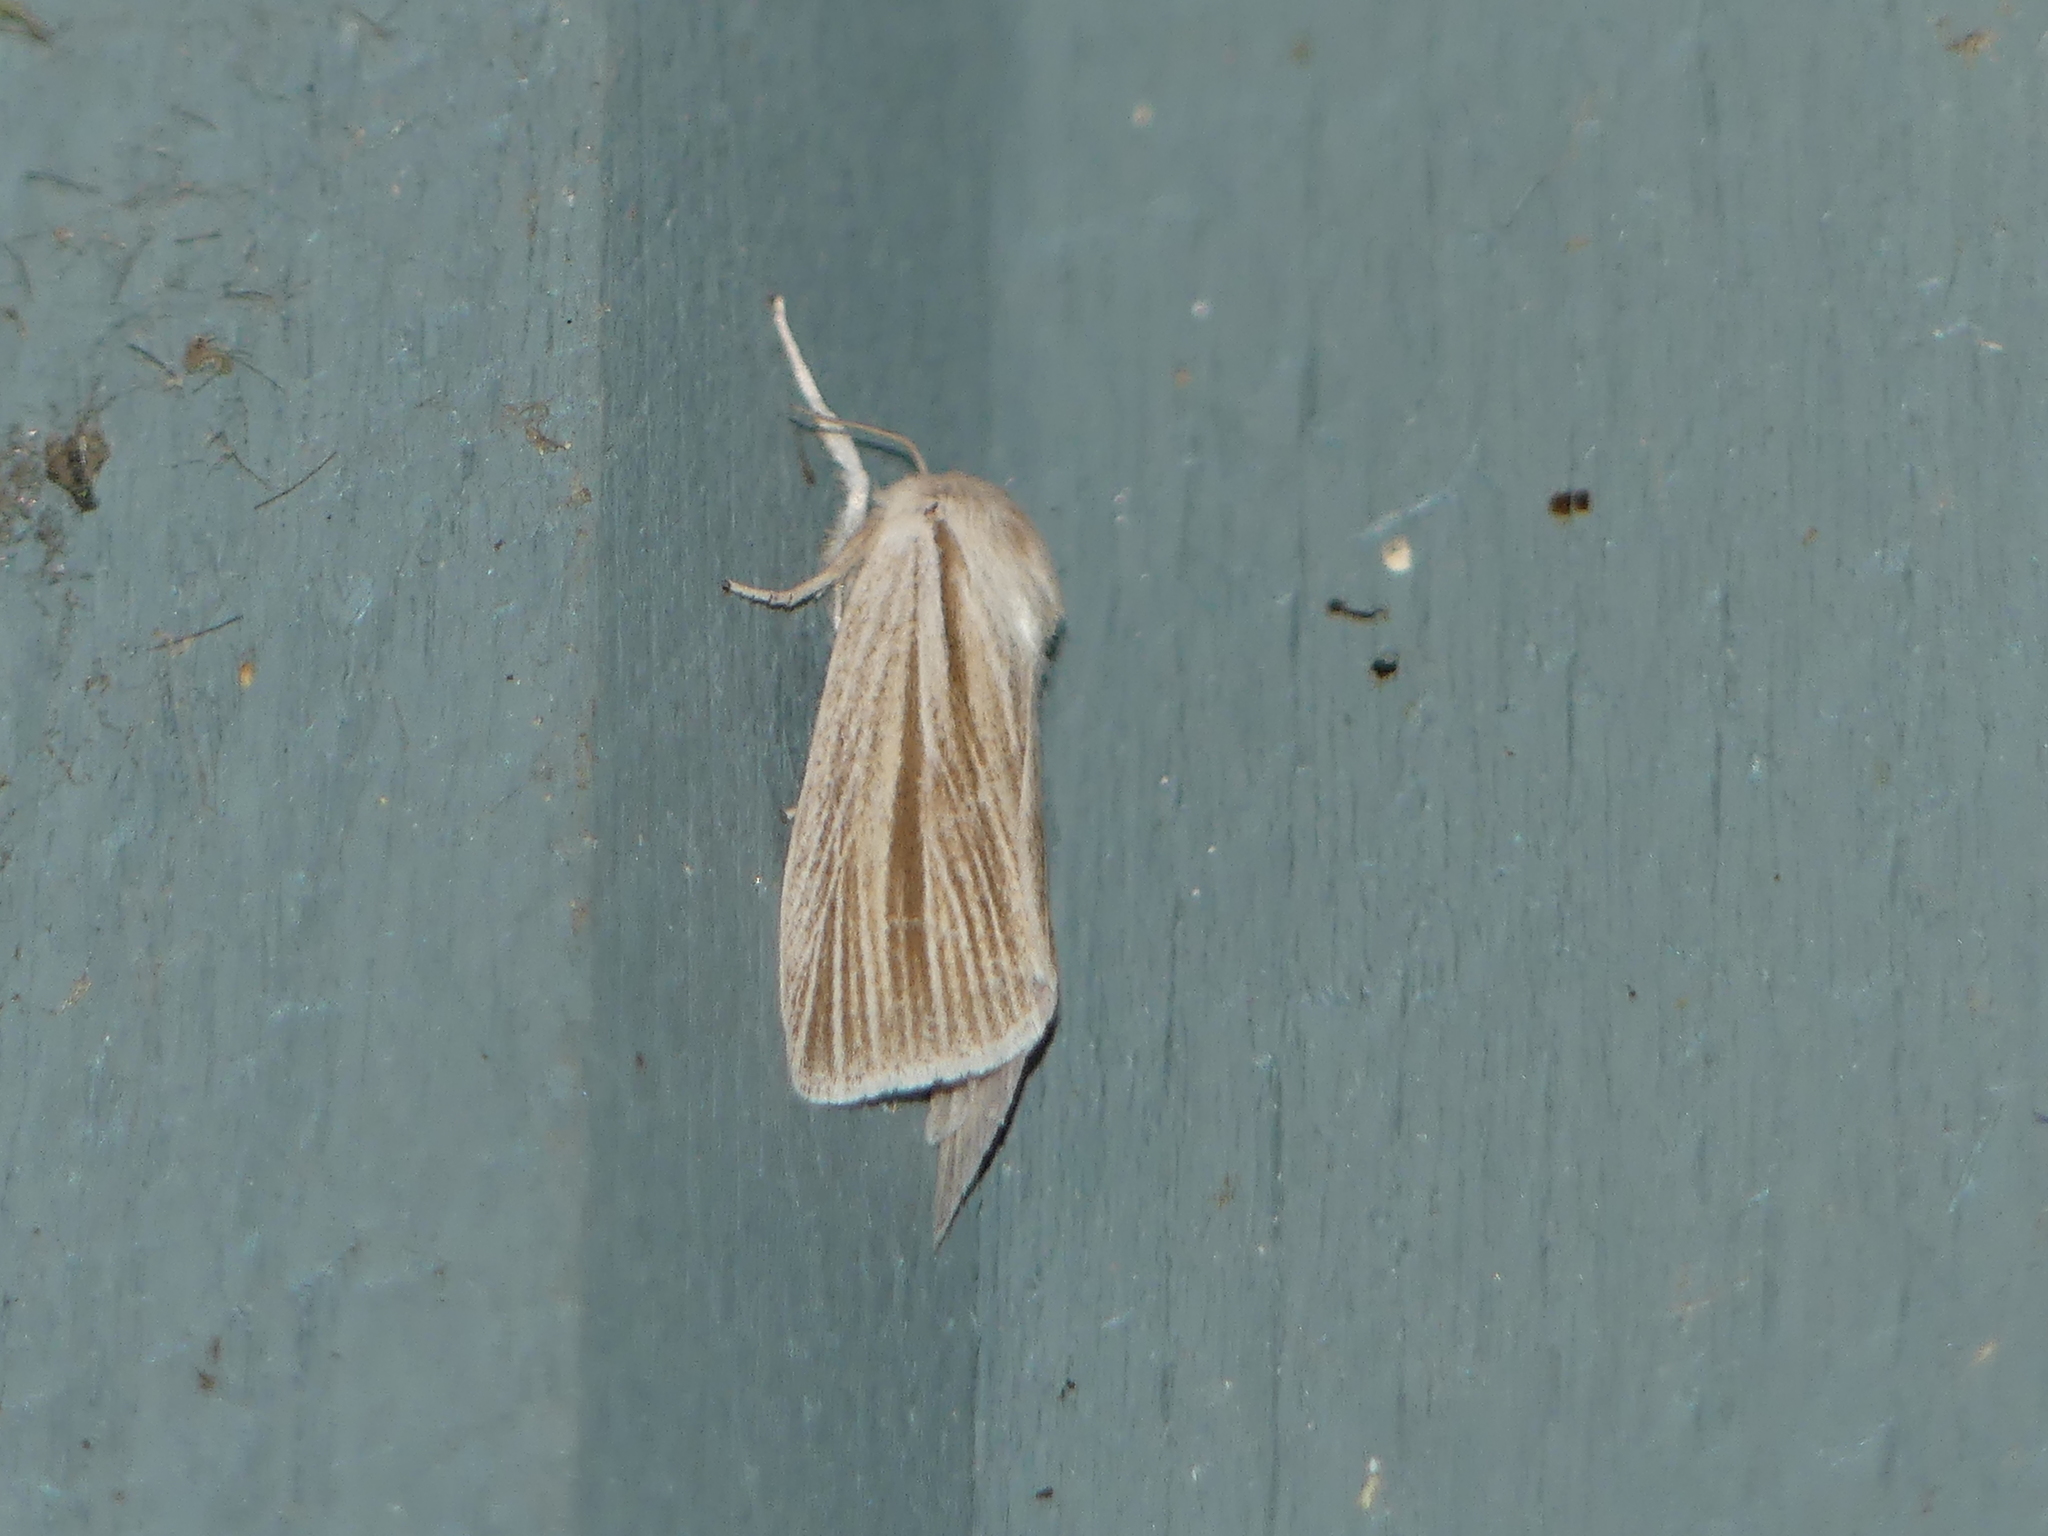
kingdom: Animalia
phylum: Arthropoda
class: Insecta
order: Lepidoptera
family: Noctuidae
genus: Acronicta
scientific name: Acronicta insularis
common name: Henry's marsh moth
